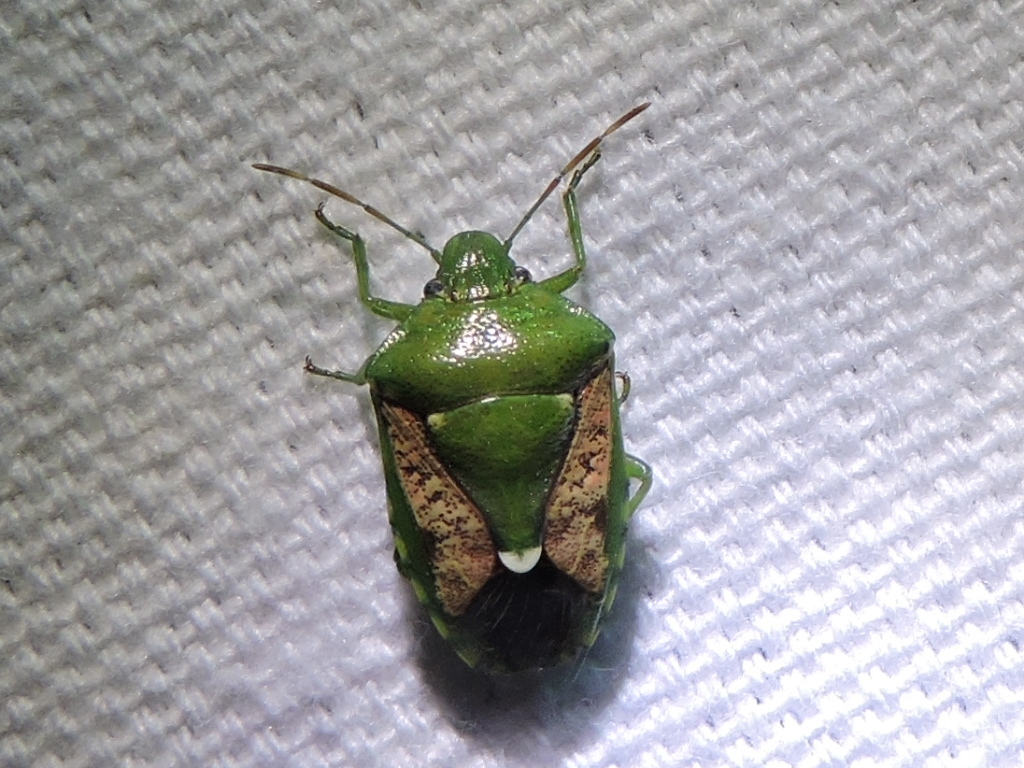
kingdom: Animalia
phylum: Arthropoda
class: Insecta
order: Hemiptera
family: Pentatomidae
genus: Banasa
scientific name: Banasa packardii
